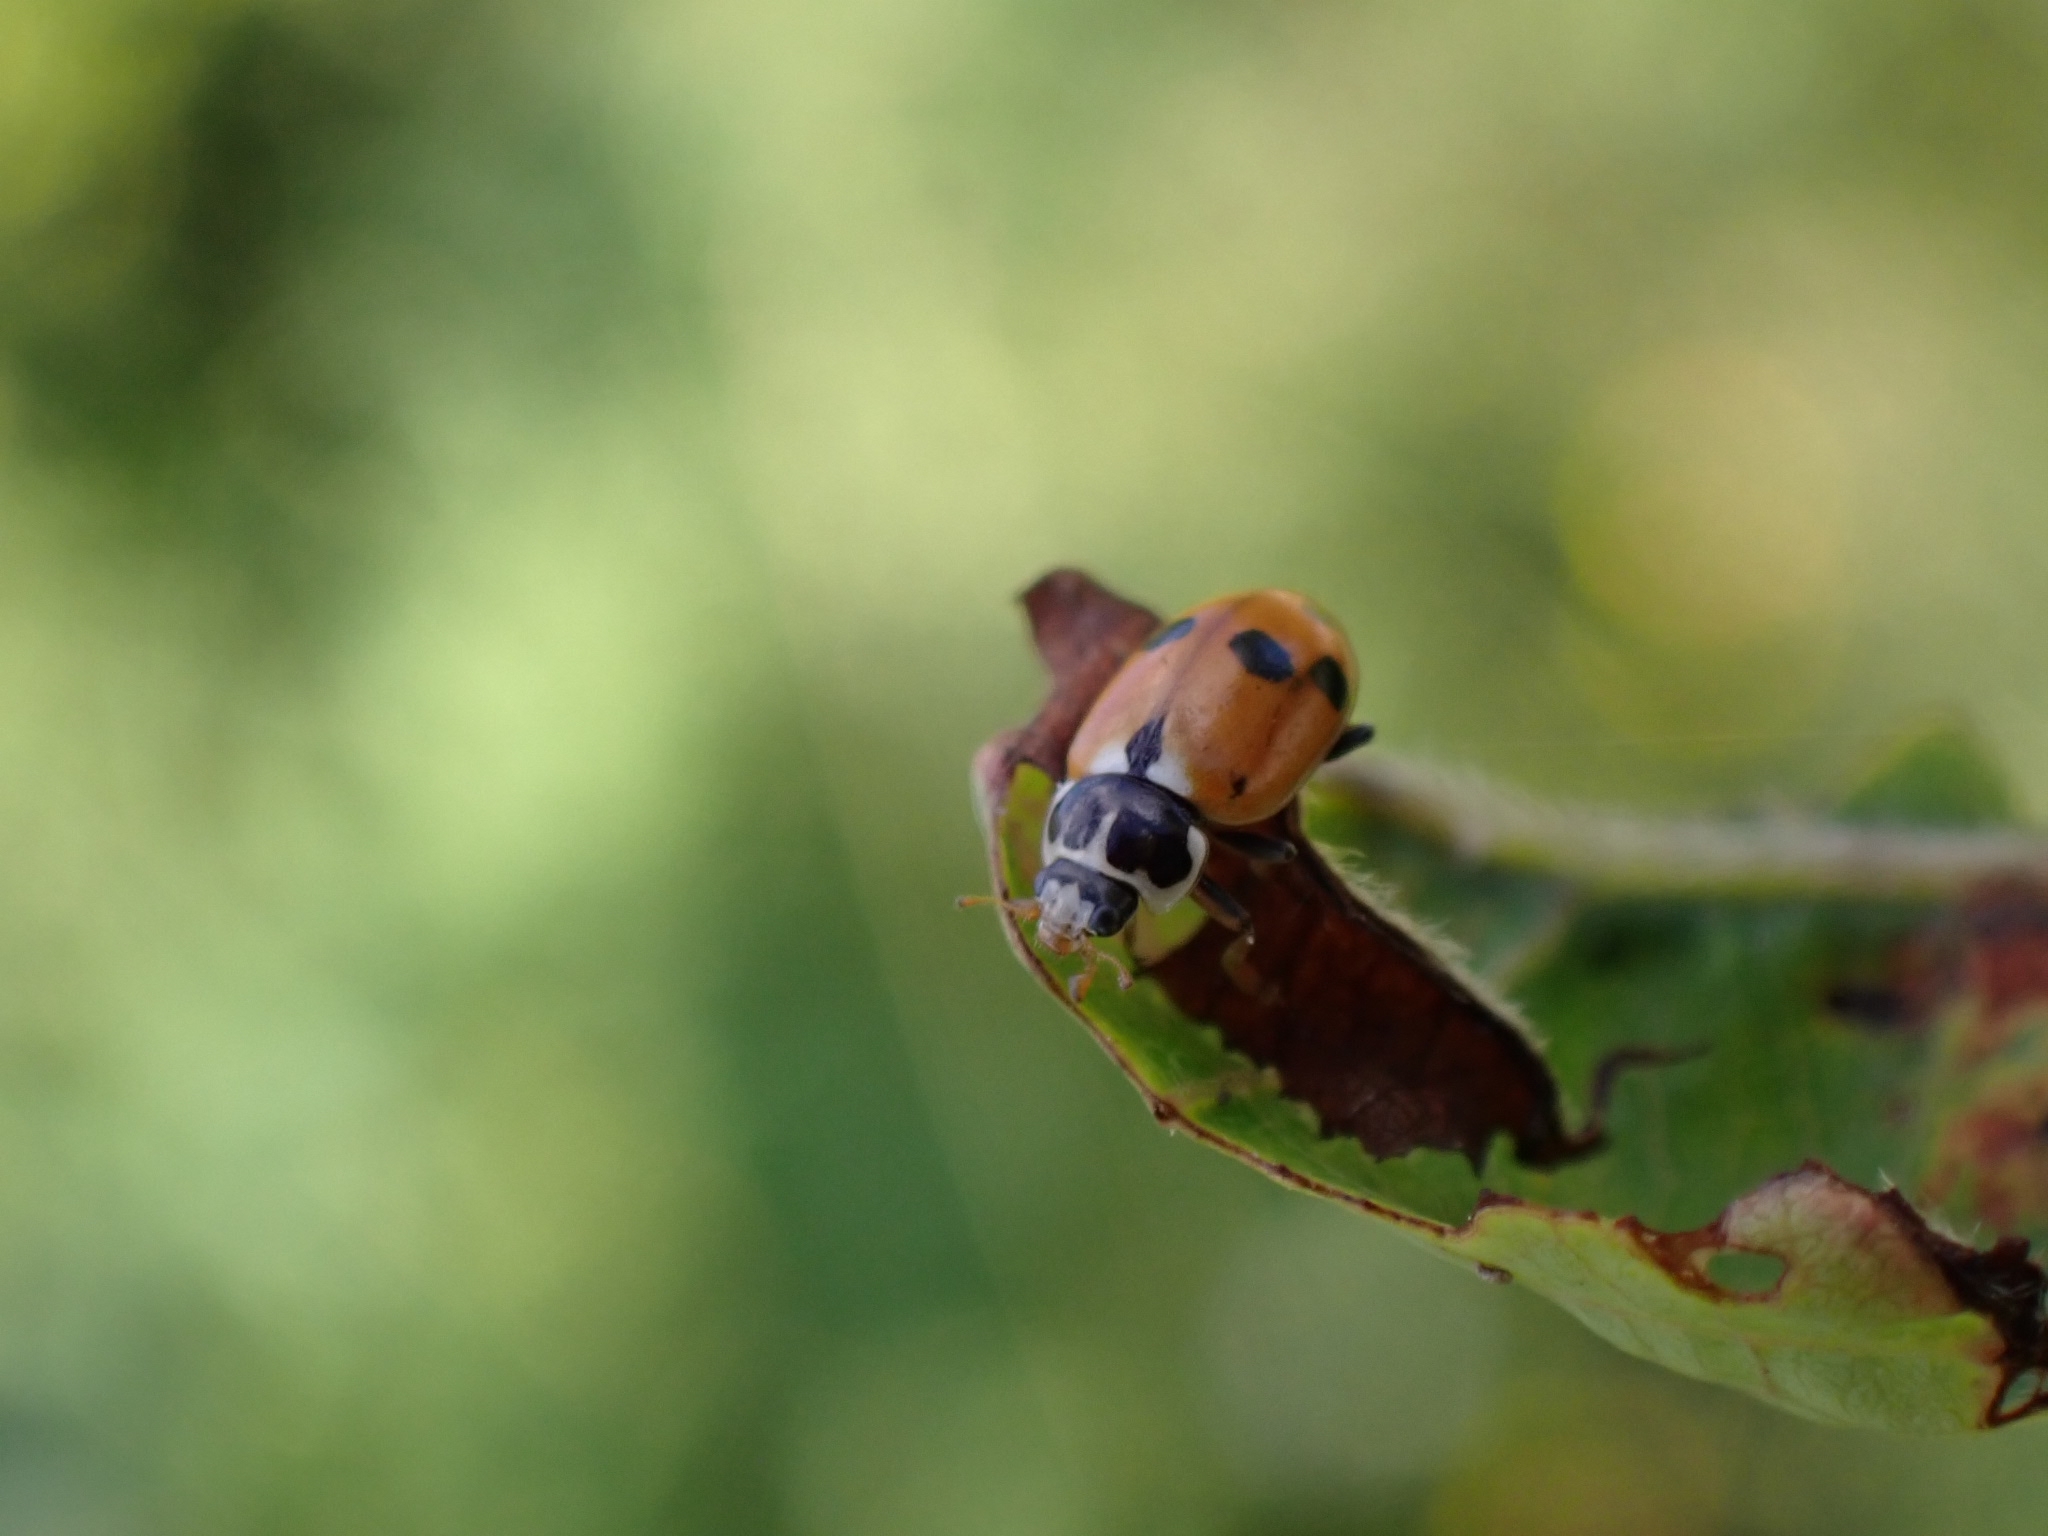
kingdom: Animalia
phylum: Arthropoda
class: Insecta
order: Coleoptera
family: Coccinellidae
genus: Hippodamia
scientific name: Hippodamia variegata
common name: Ladybird beetle
